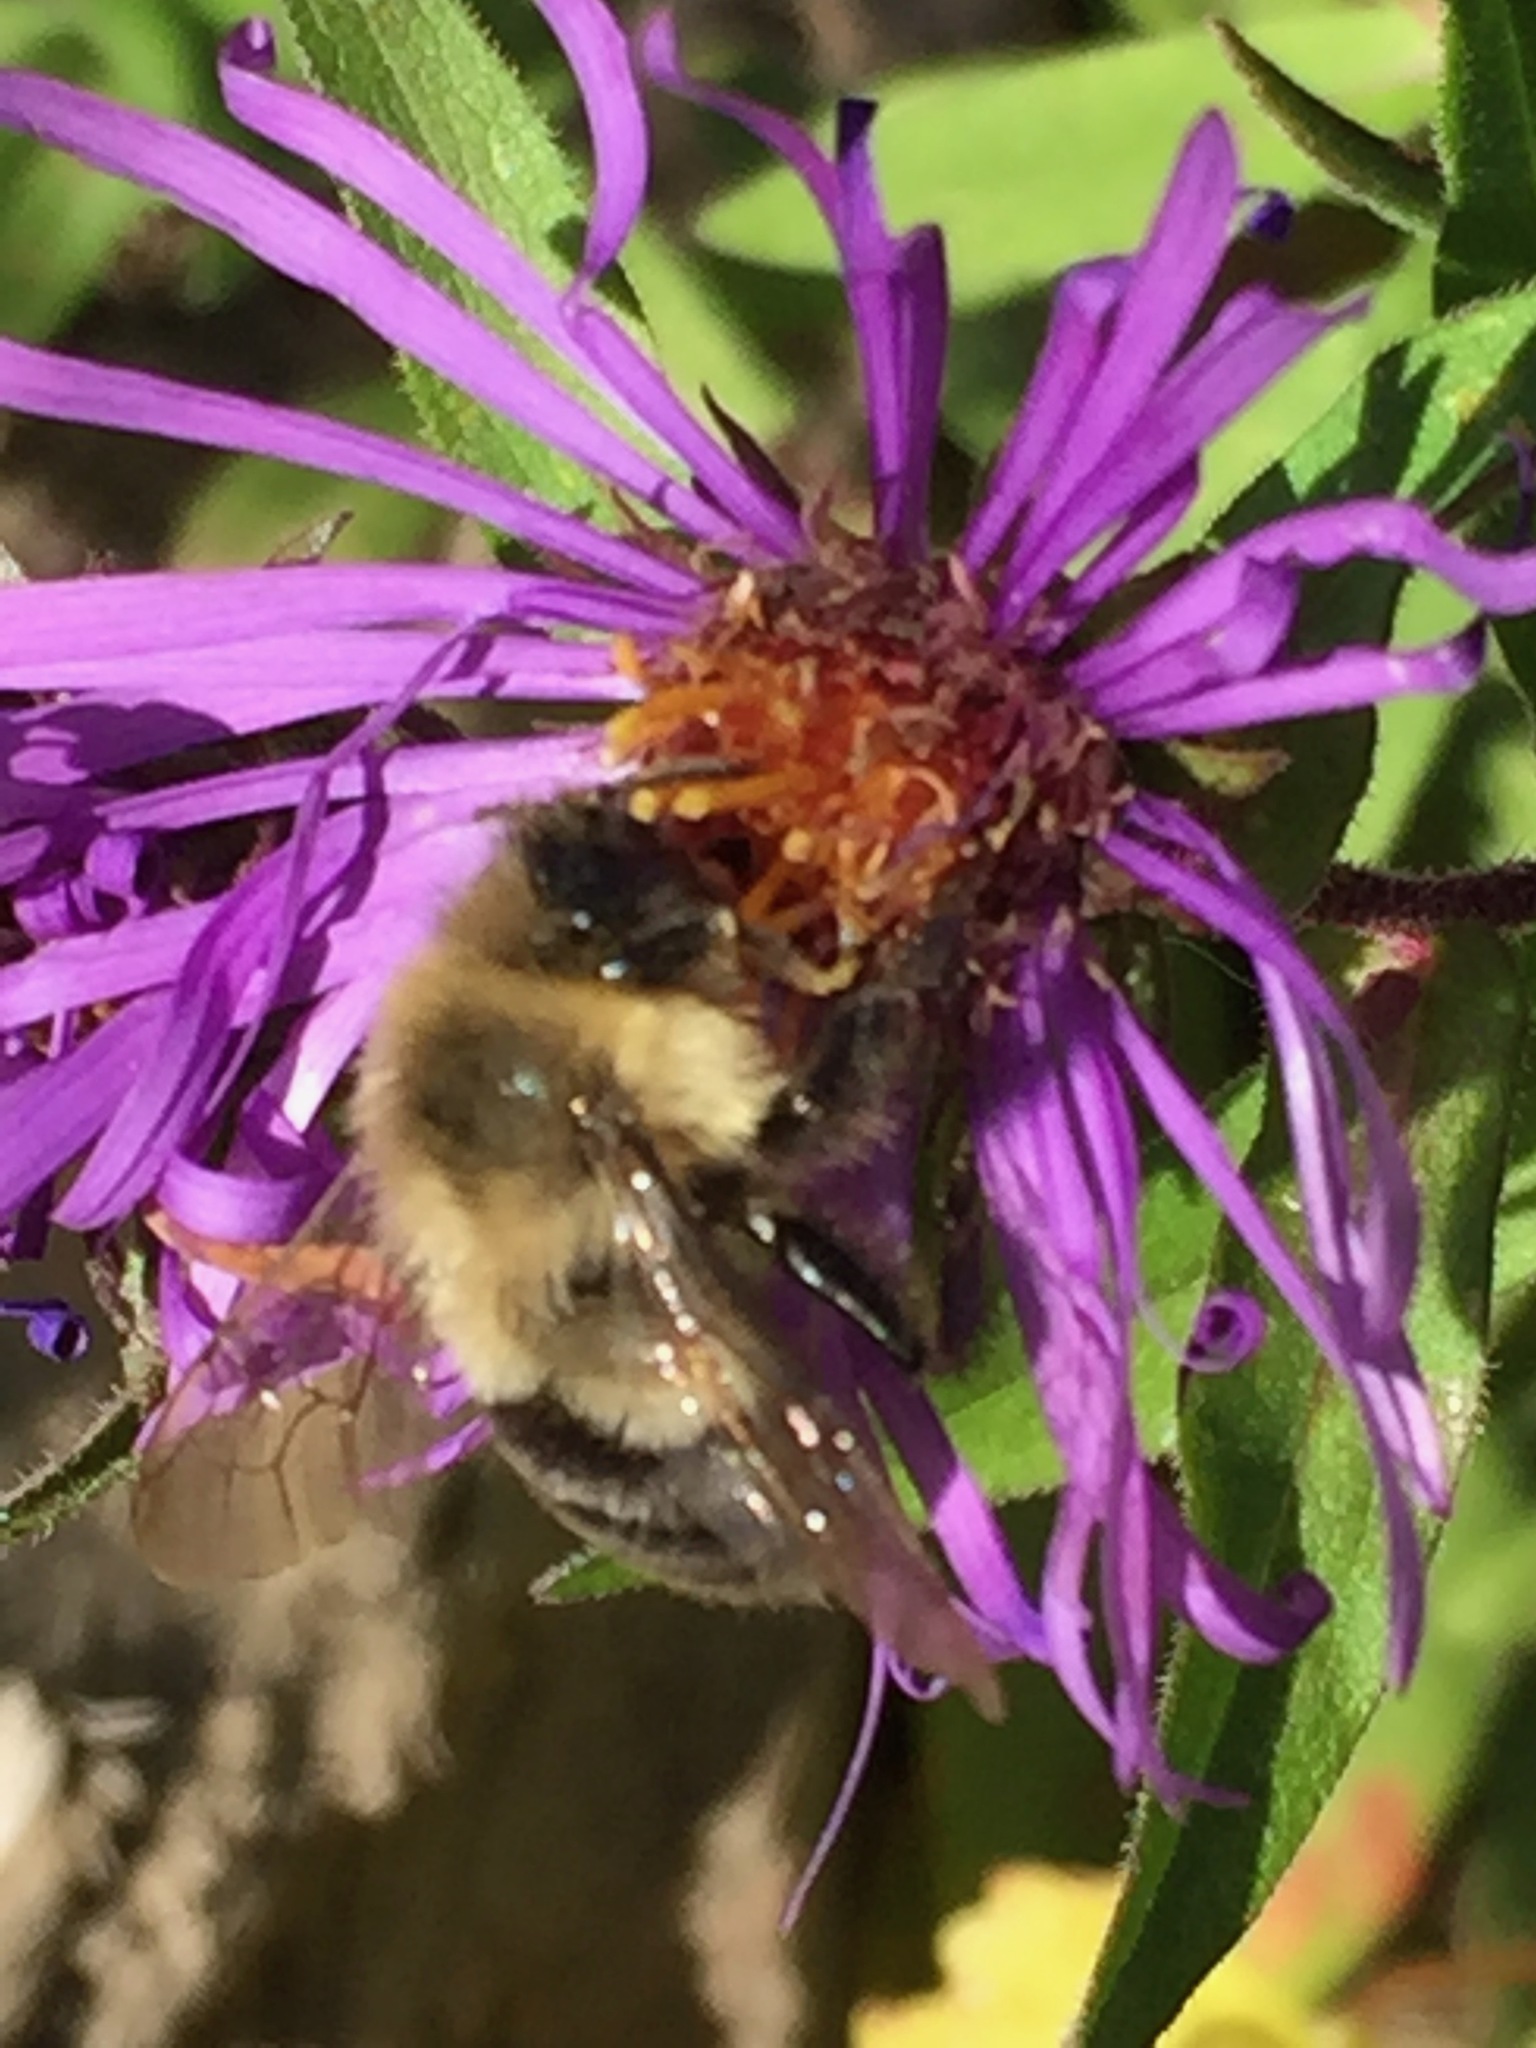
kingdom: Animalia
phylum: Arthropoda
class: Insecta
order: Hymenoptera
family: Apidae
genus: Bombus
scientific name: Bombus impatiens
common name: Common eastern bumble bee
